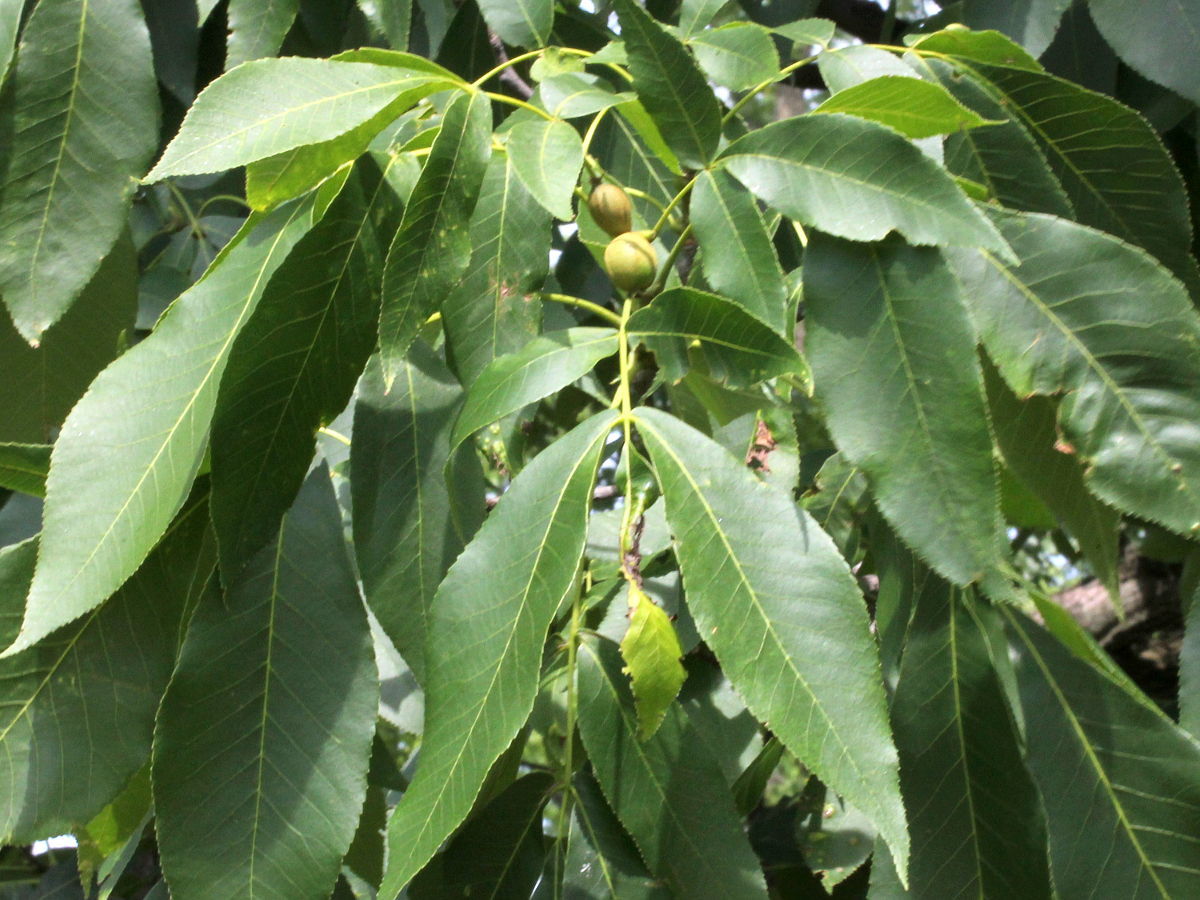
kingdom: Plantae
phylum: Tracheophyta
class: Magnoliopsida
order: Fagales
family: Juglandaceae
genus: Carya
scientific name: Carya ovata
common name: Shagbark hickory
